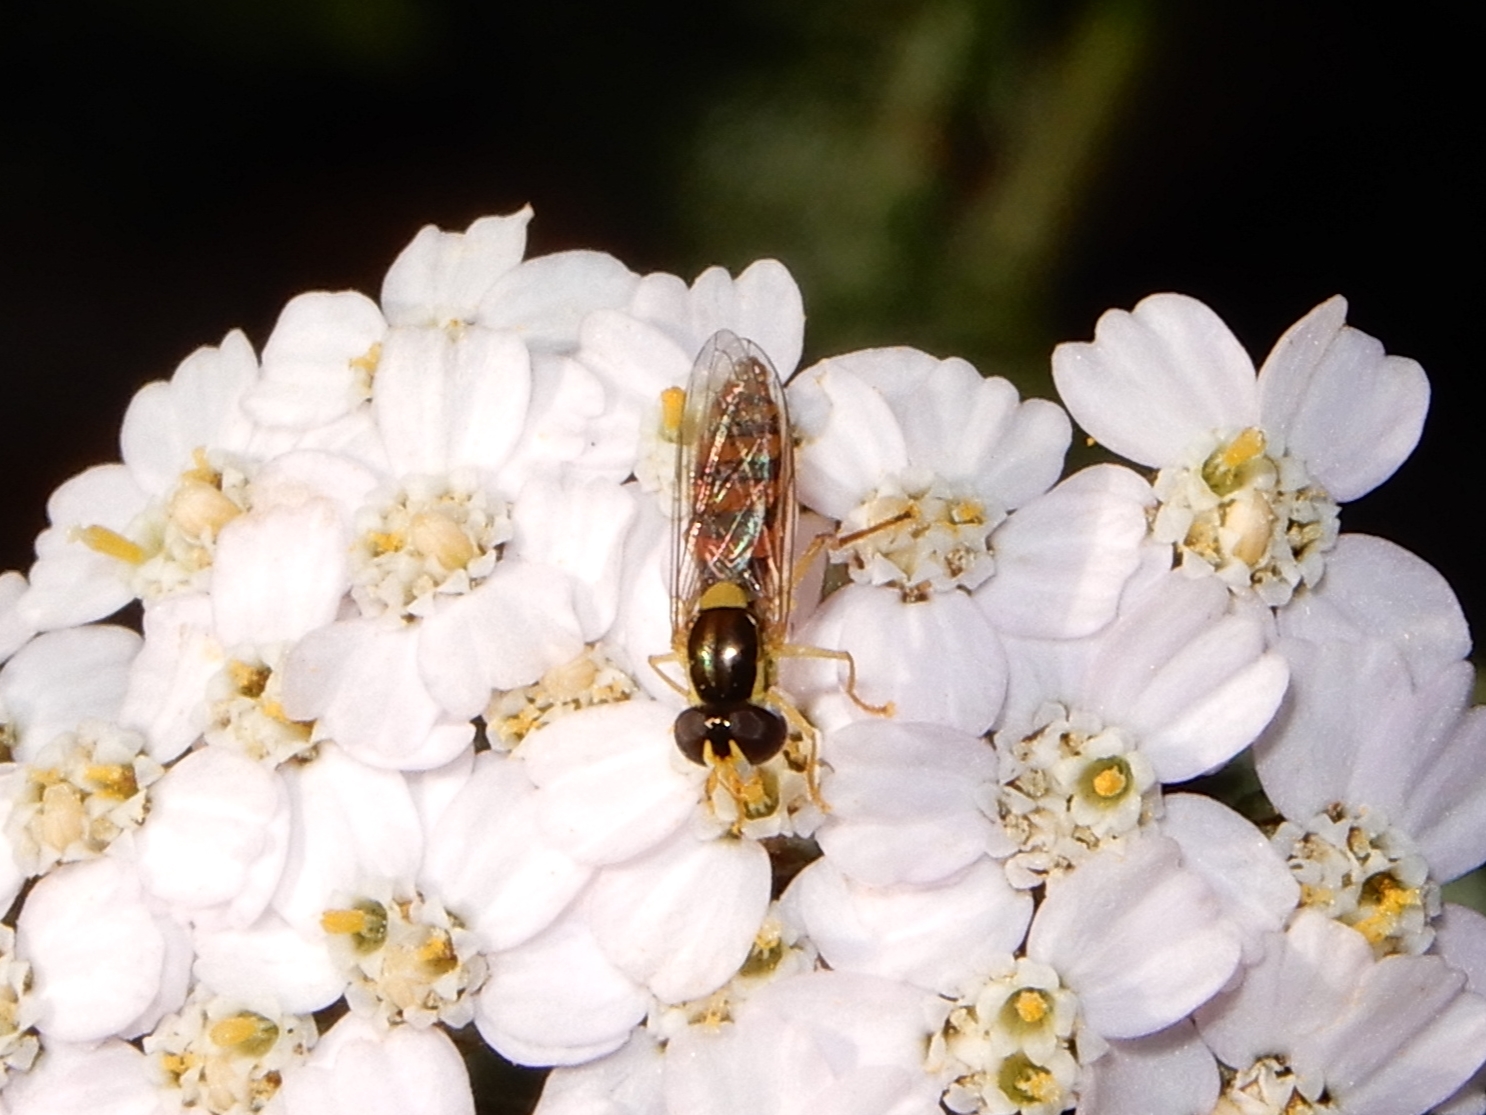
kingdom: Animalia
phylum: Arthropoda
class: Insecta
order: Diptera
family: Syrphidae
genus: Sphaerophoria
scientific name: Sphaerophoria macrogaster
